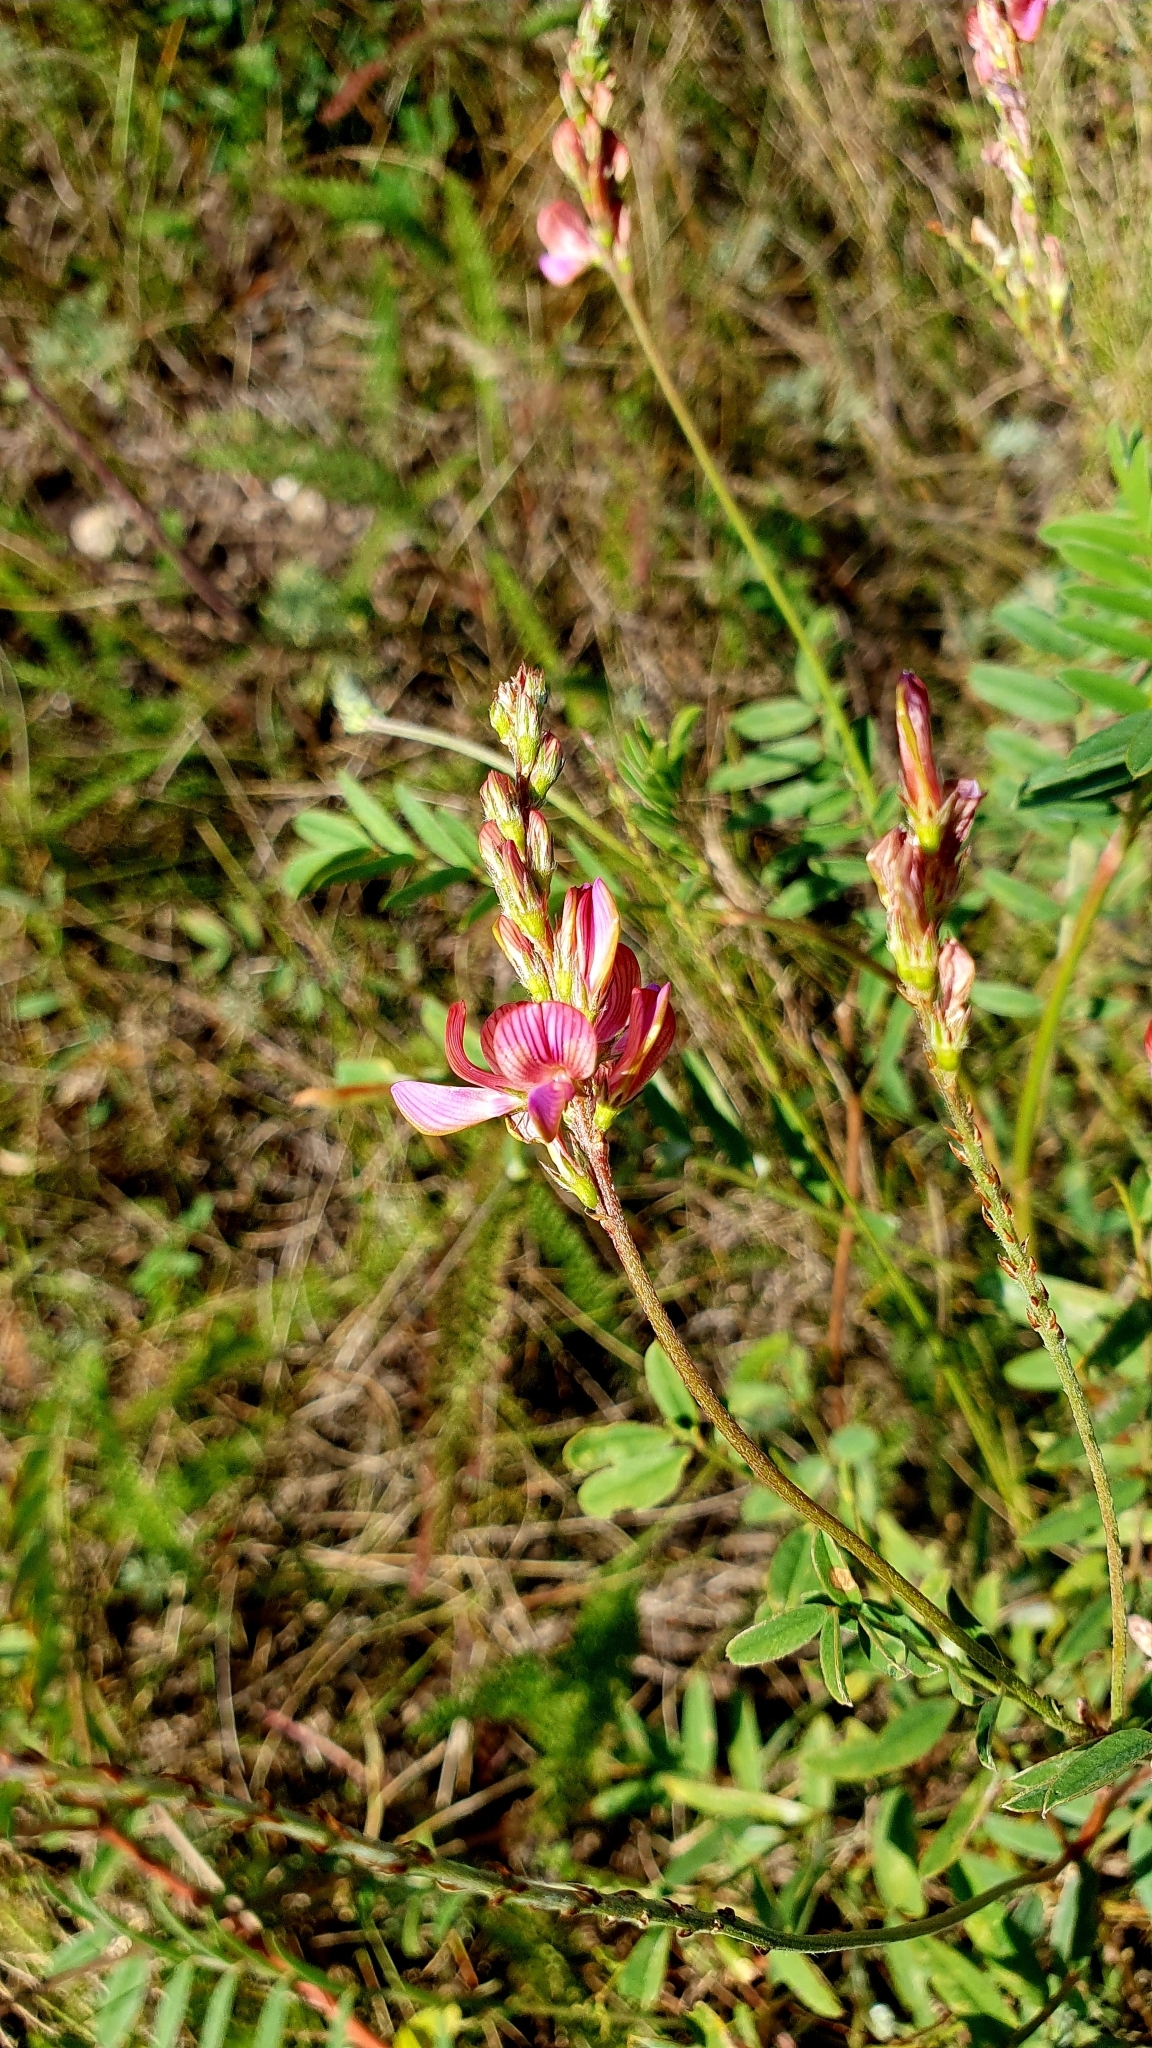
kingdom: Plantae
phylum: Tracheophyta
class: Magnoliopsida
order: Fabales
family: Fabaceae
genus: Onobrychis
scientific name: Onobrychis arenaria
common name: Sand esparcet
